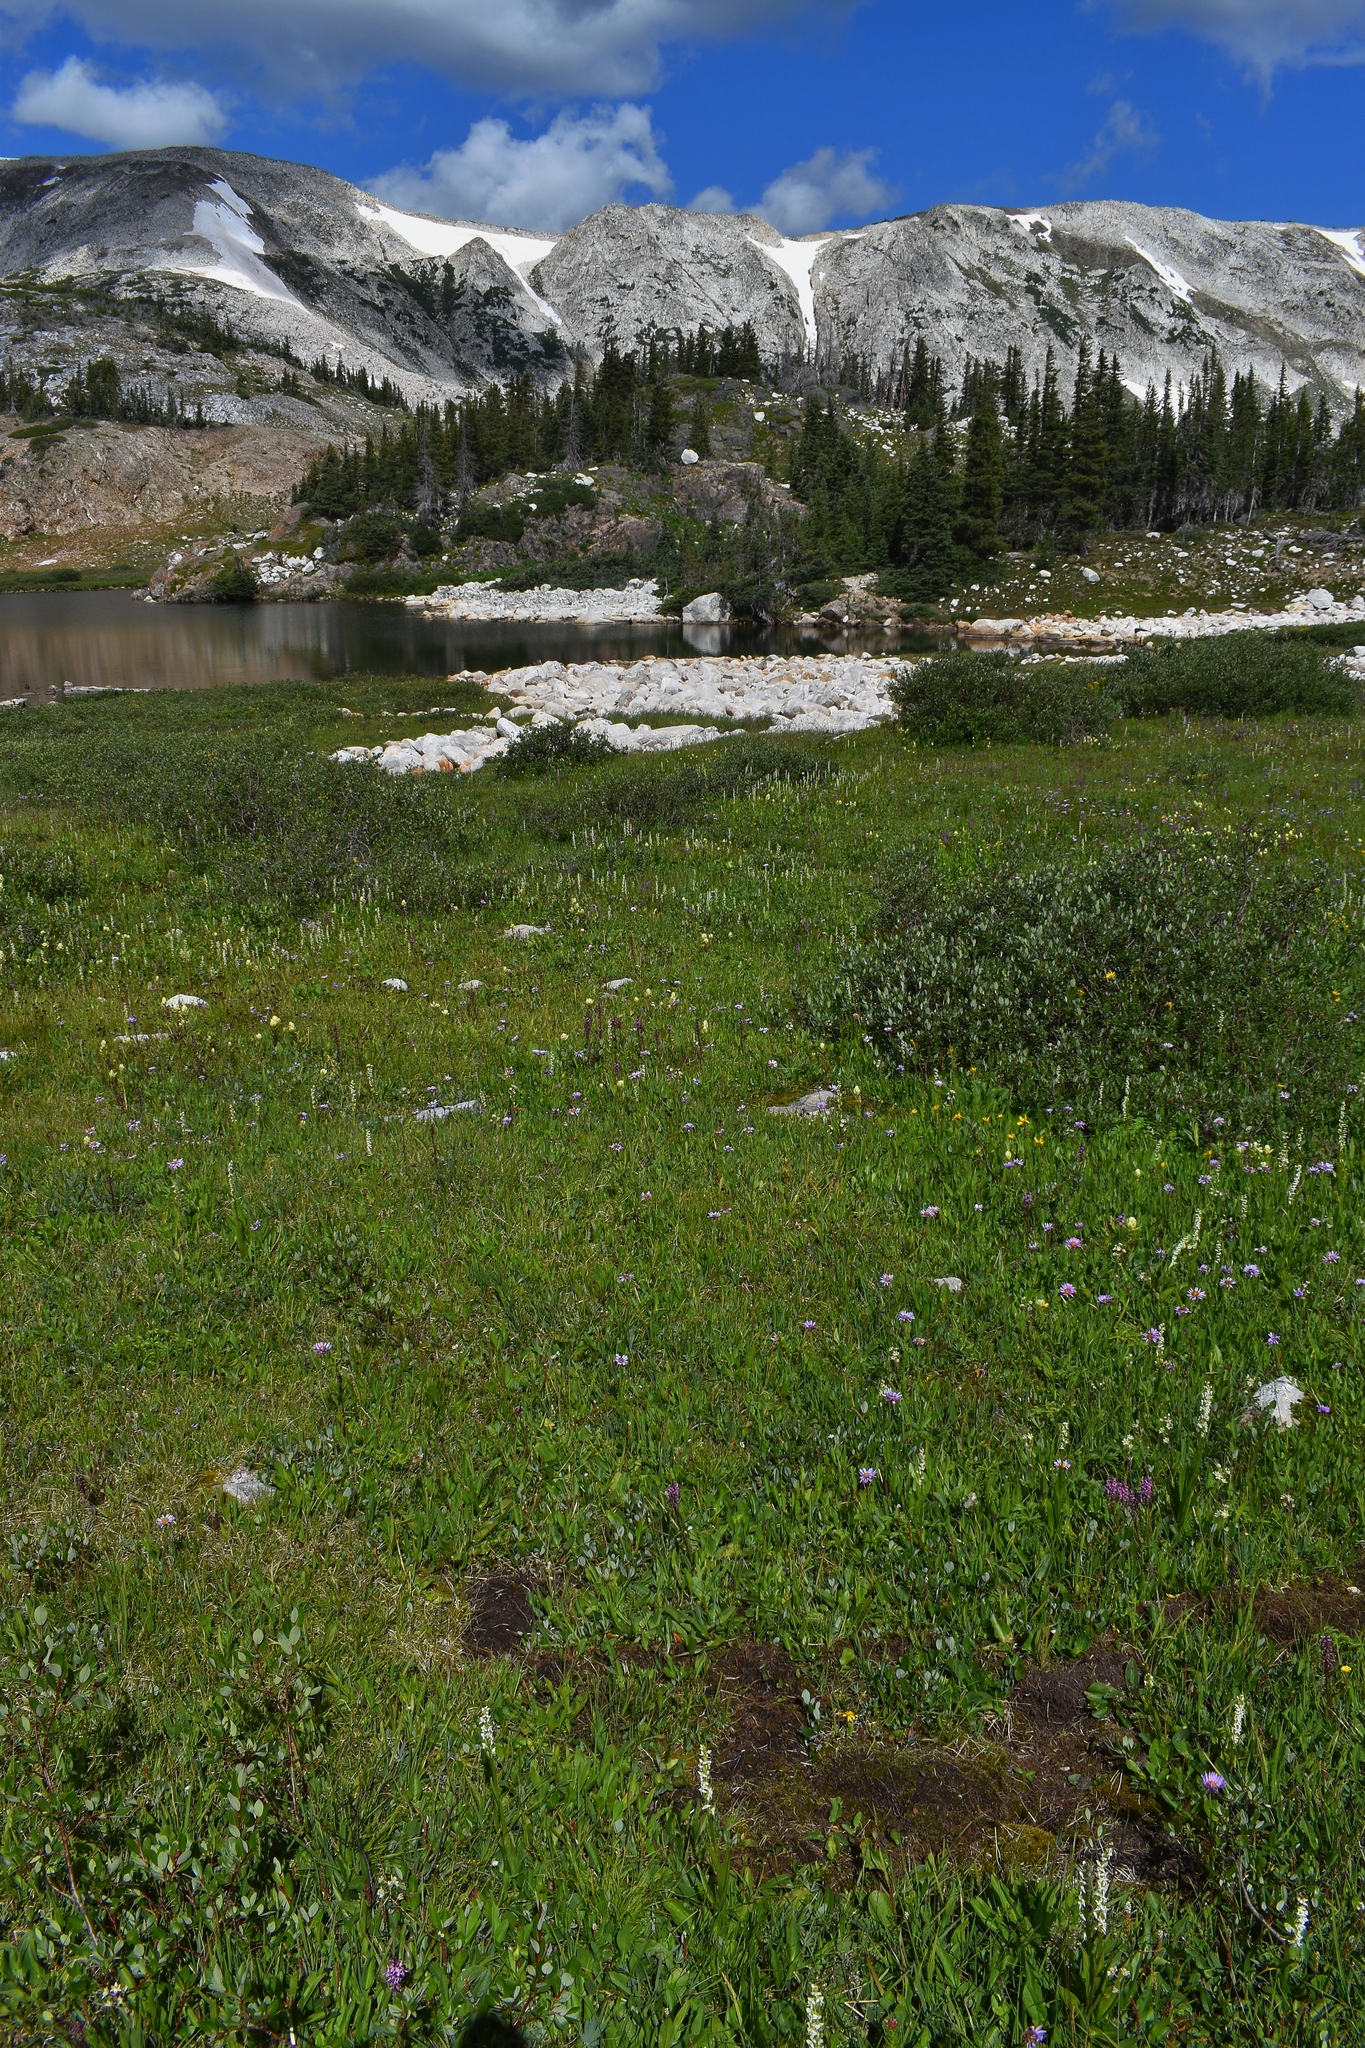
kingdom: Plantae
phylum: Tracheophyta
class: Liliopsida
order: Asparagales
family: Orchidaceae
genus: Platanthera
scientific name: Platanthera dilatata
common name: Bog candles
